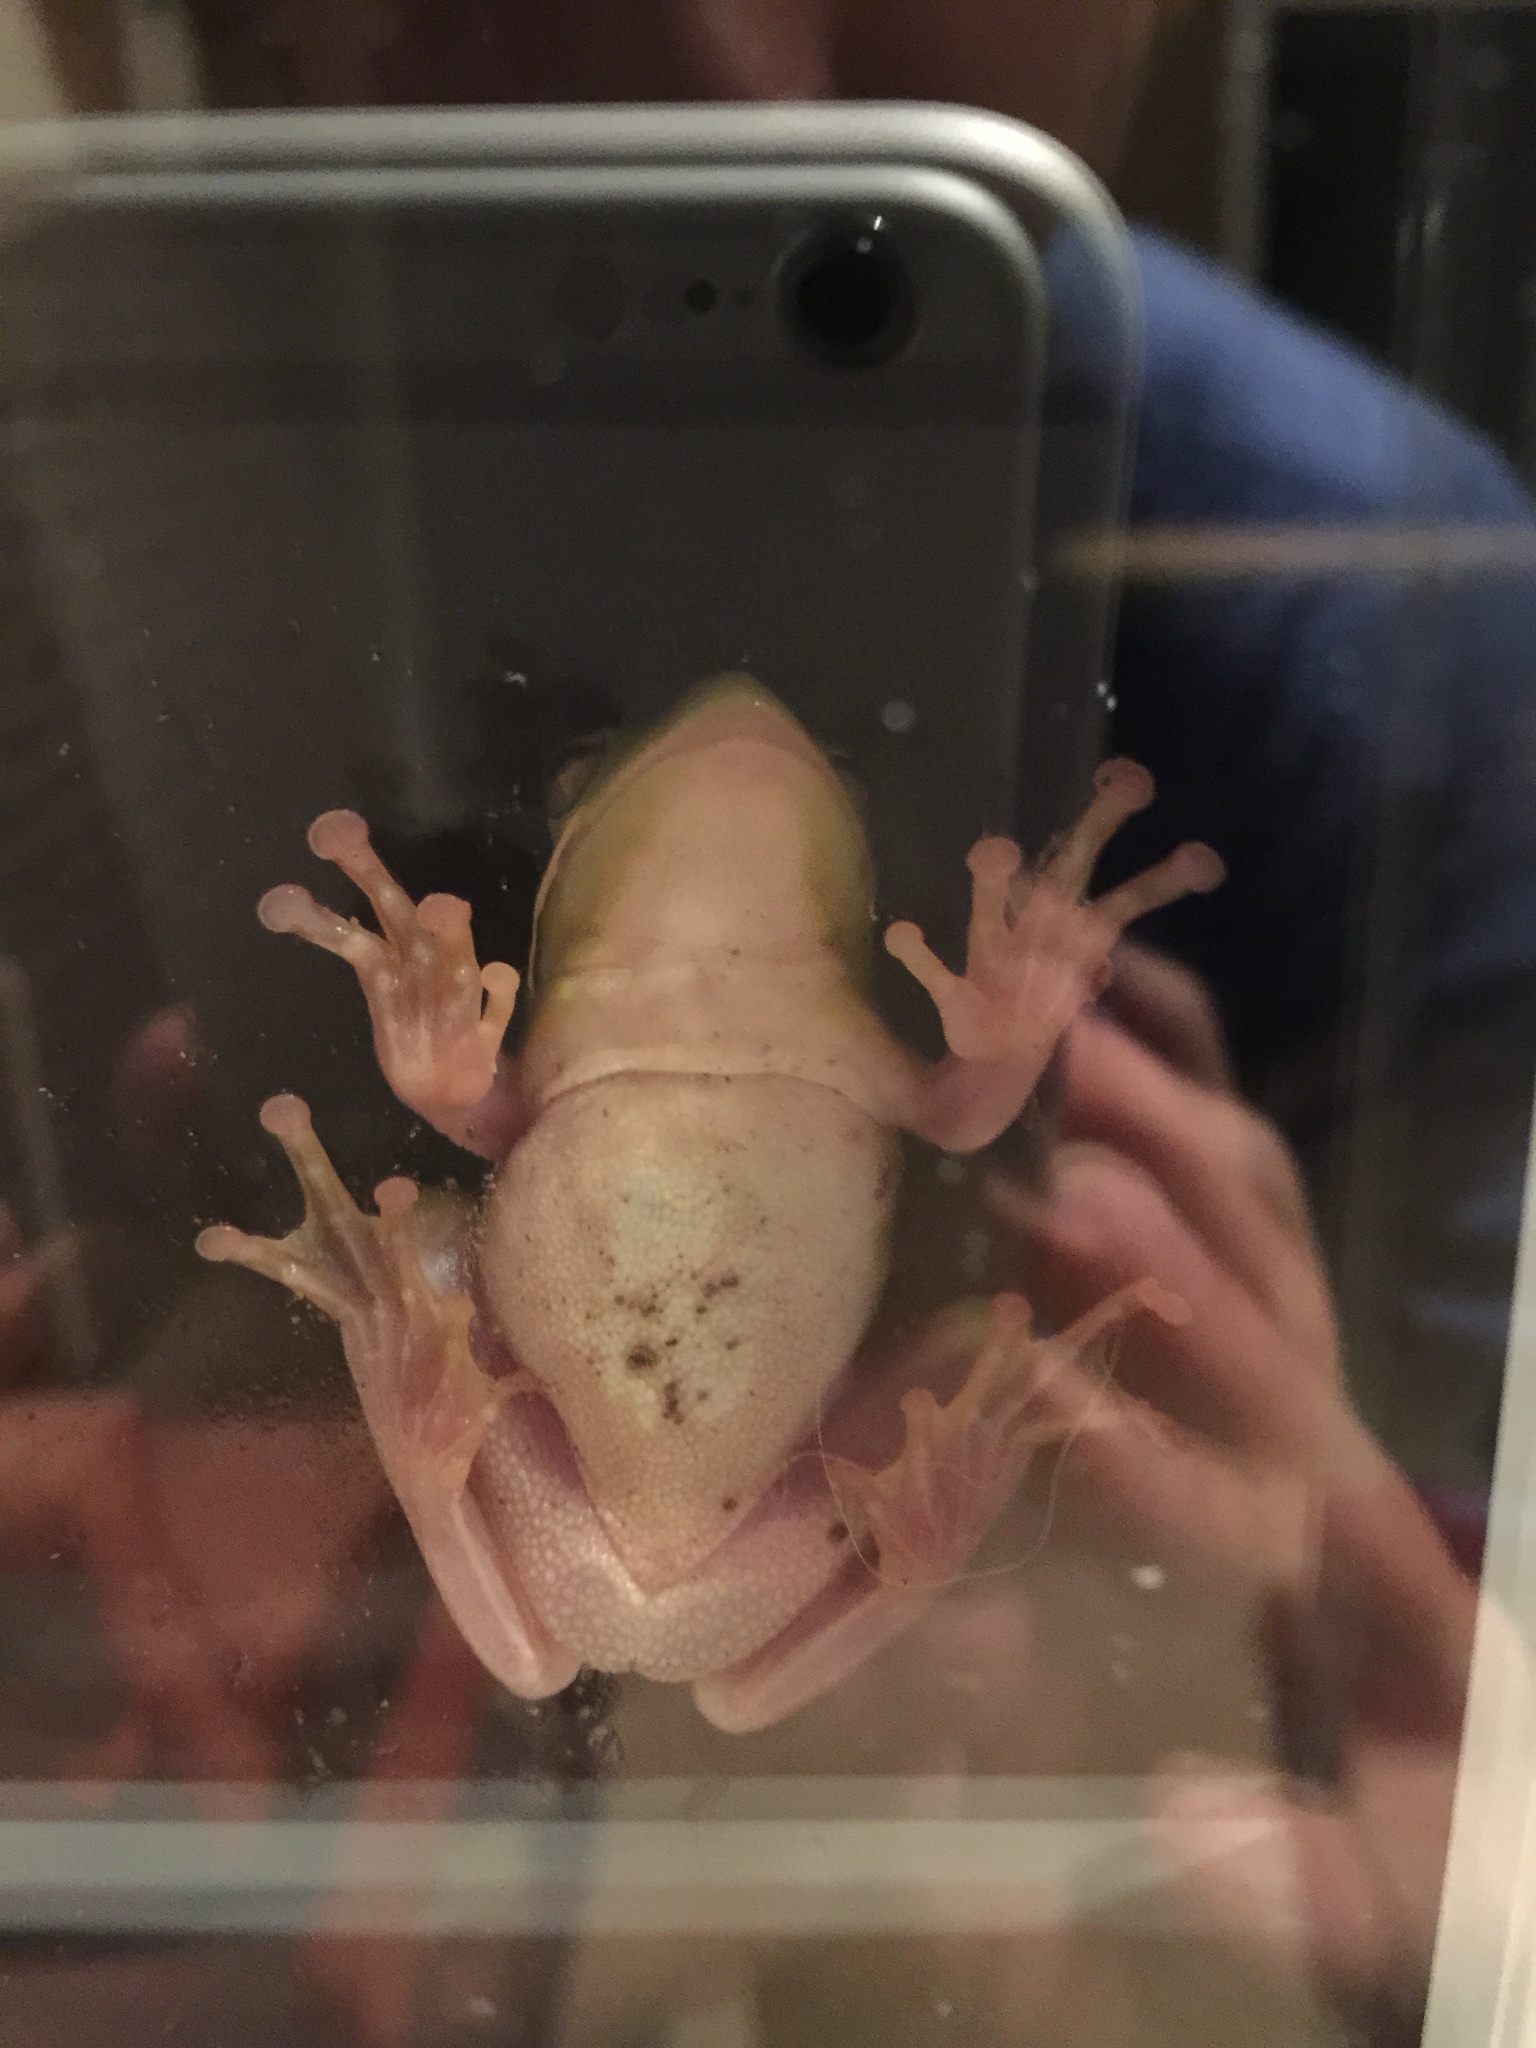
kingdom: Animalia
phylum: Chordata
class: Amphibia
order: Anura
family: Hylidae
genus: Dryophytes
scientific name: Dryophytes cinereus
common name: Green treefrog
